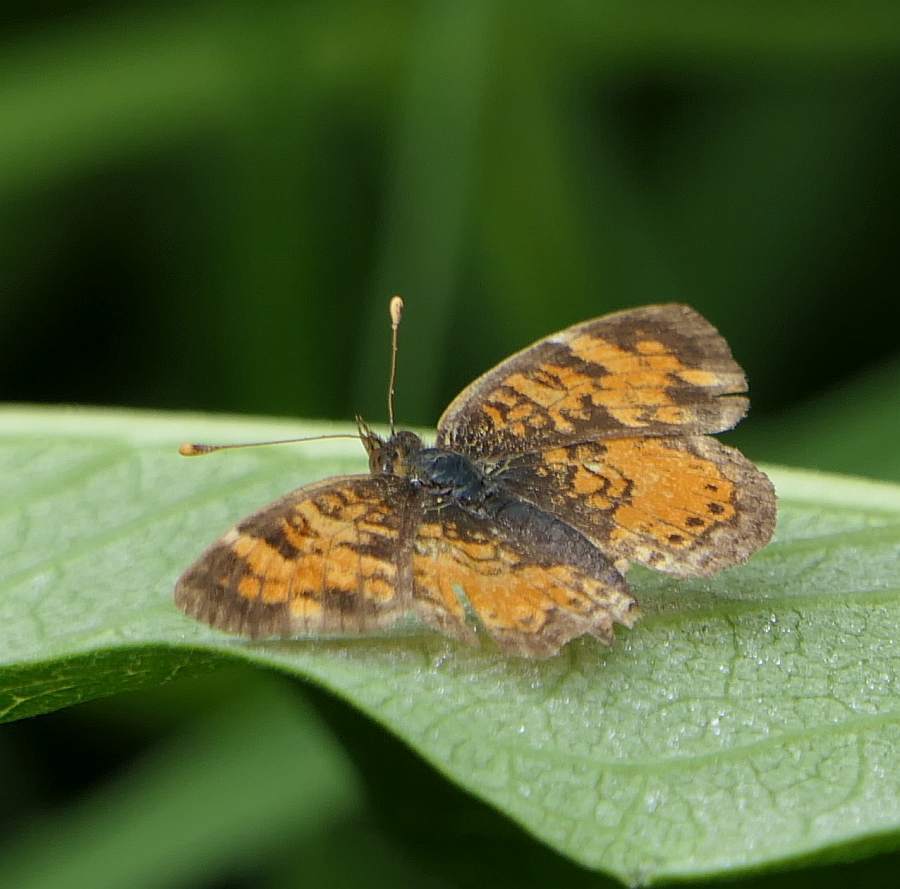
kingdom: Animalia
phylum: Arthropoda
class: Insecta
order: Lepidoptera
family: Nymphalidae
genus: Phyciodes
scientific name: Phyciodes tharos
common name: Pearl crescent
